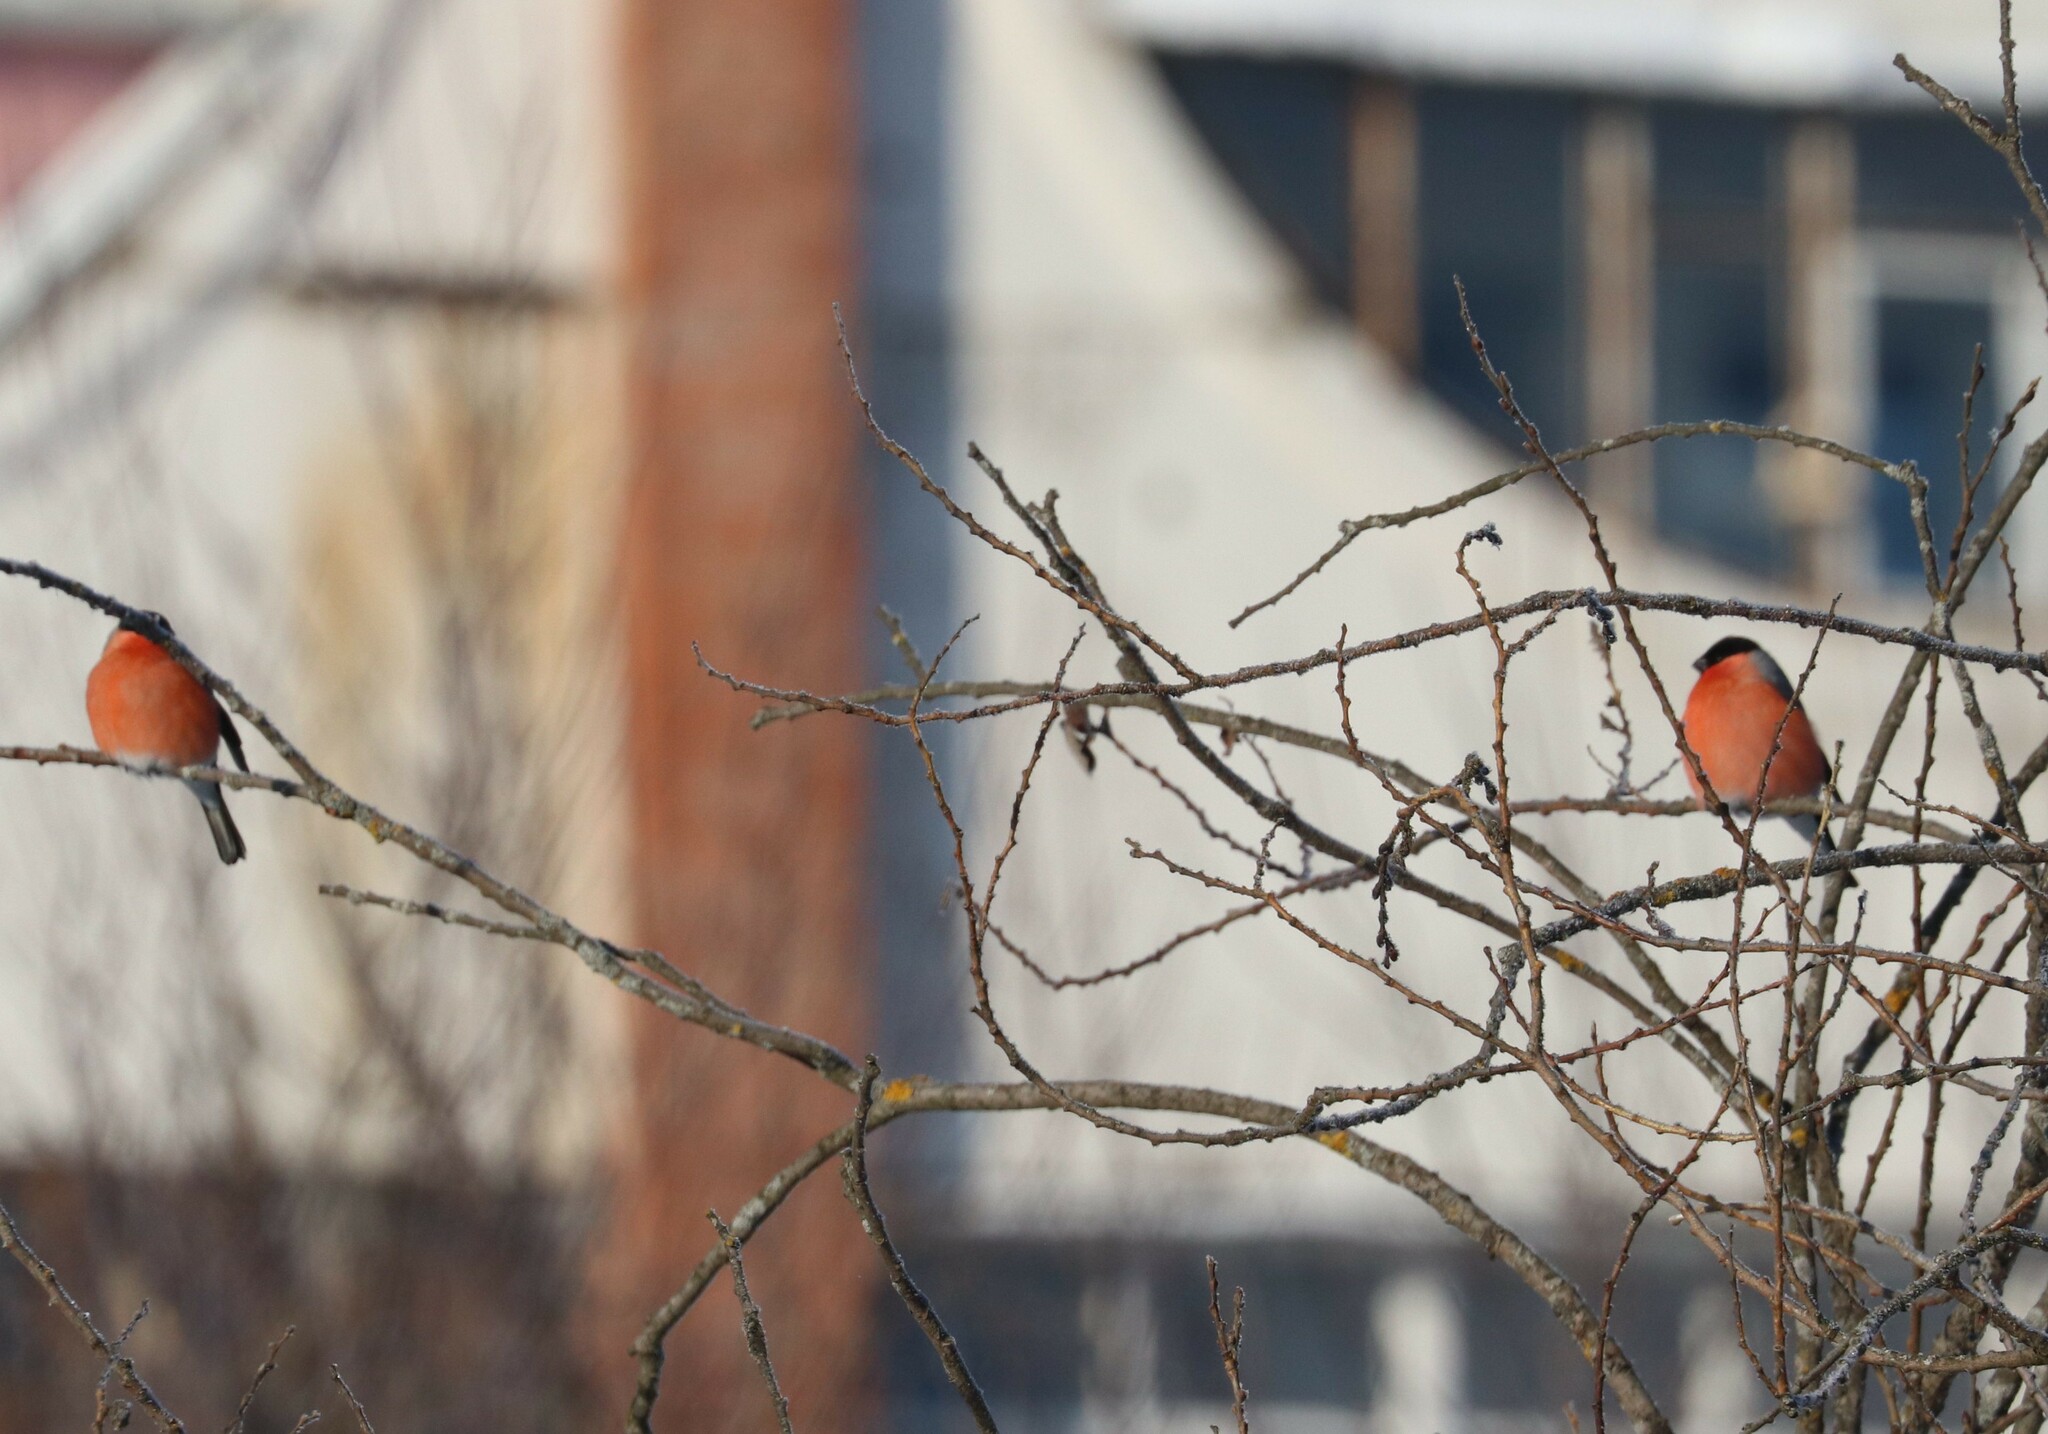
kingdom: Animalia
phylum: Chordata
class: Aves
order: Passeriformes
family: Fringillidae
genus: Pyrrhula
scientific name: Pyrrhula pyrrhula
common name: Eurasian bullfinch
